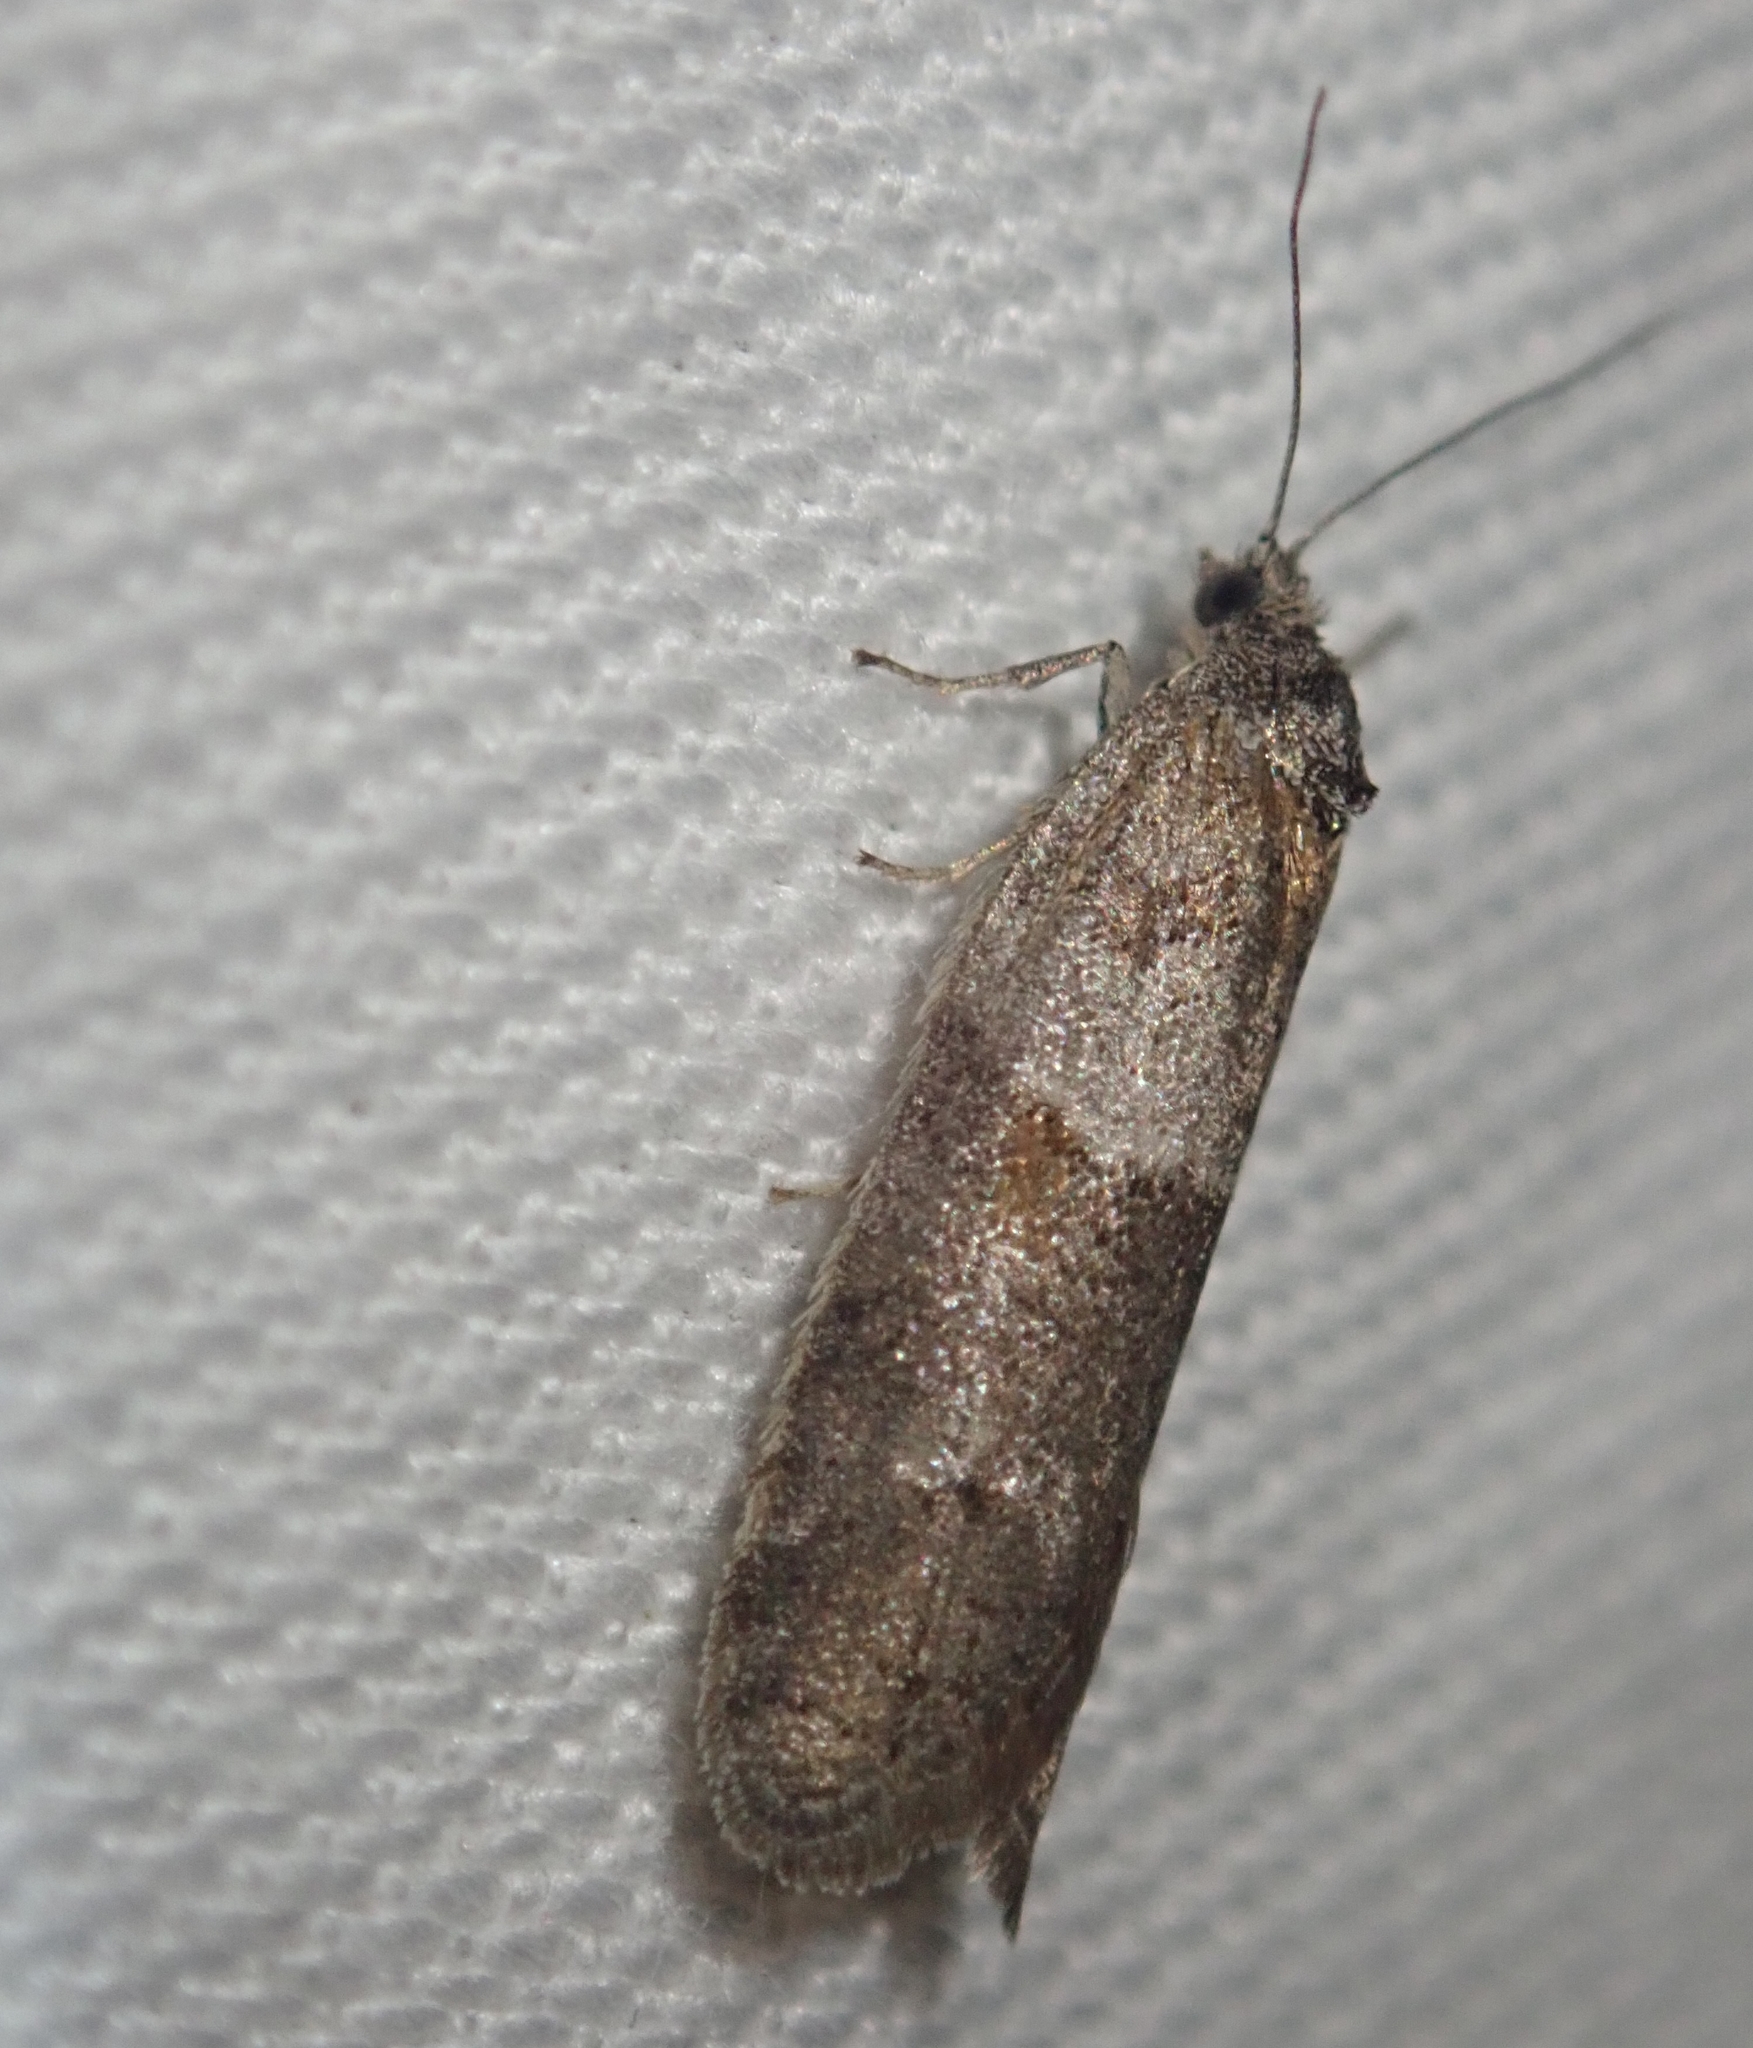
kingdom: Animalia
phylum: Arthropoda
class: Insecta
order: Lepidoptera
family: Tortricidae
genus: Tortricodes
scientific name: Tortricodes alternella
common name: Winter shade
